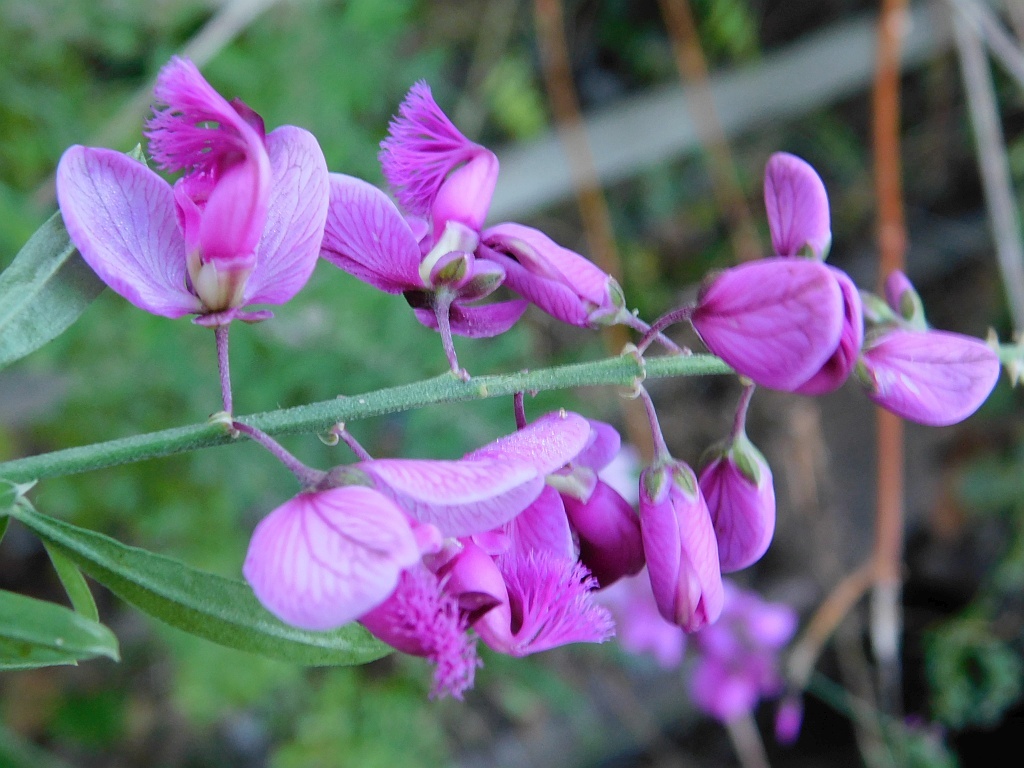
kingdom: Plantae
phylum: Tracheophyta
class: Magnoliopsida
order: Fabales
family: Polygalaceae
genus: Polygala
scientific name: Polygala virgata
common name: Milkwort
